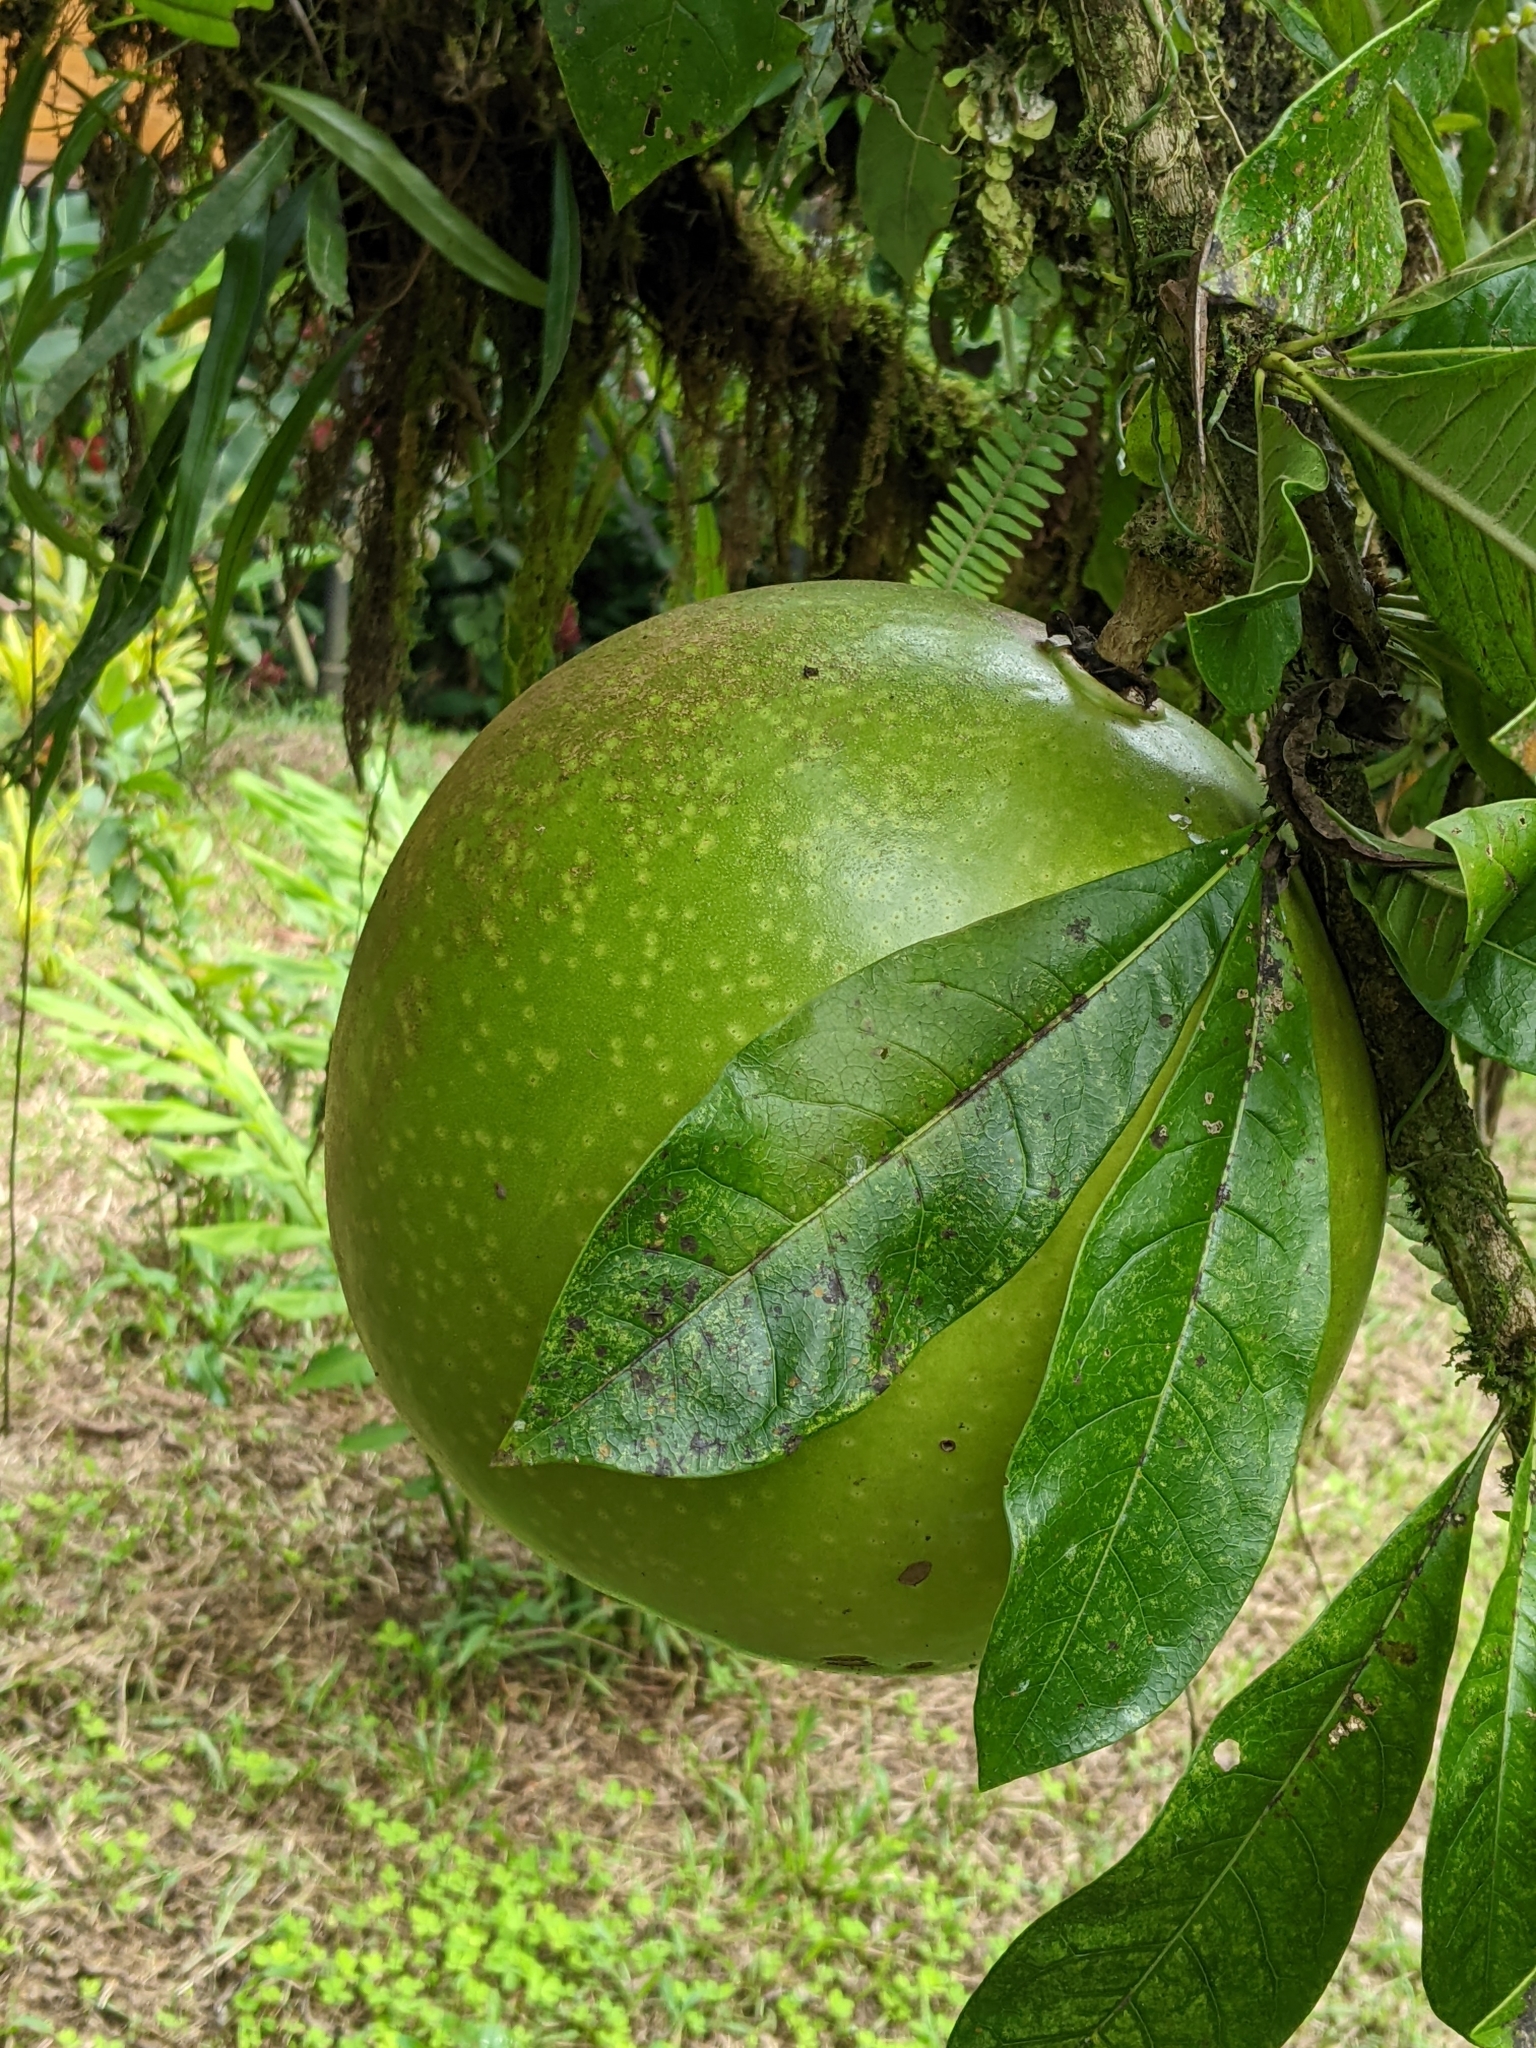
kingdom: Plantae
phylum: Tracheophyta
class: Magnoliopsida
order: Lamiales
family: Bignoniaceae
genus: Crescentia
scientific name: Crescentia cujete
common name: Calabash
